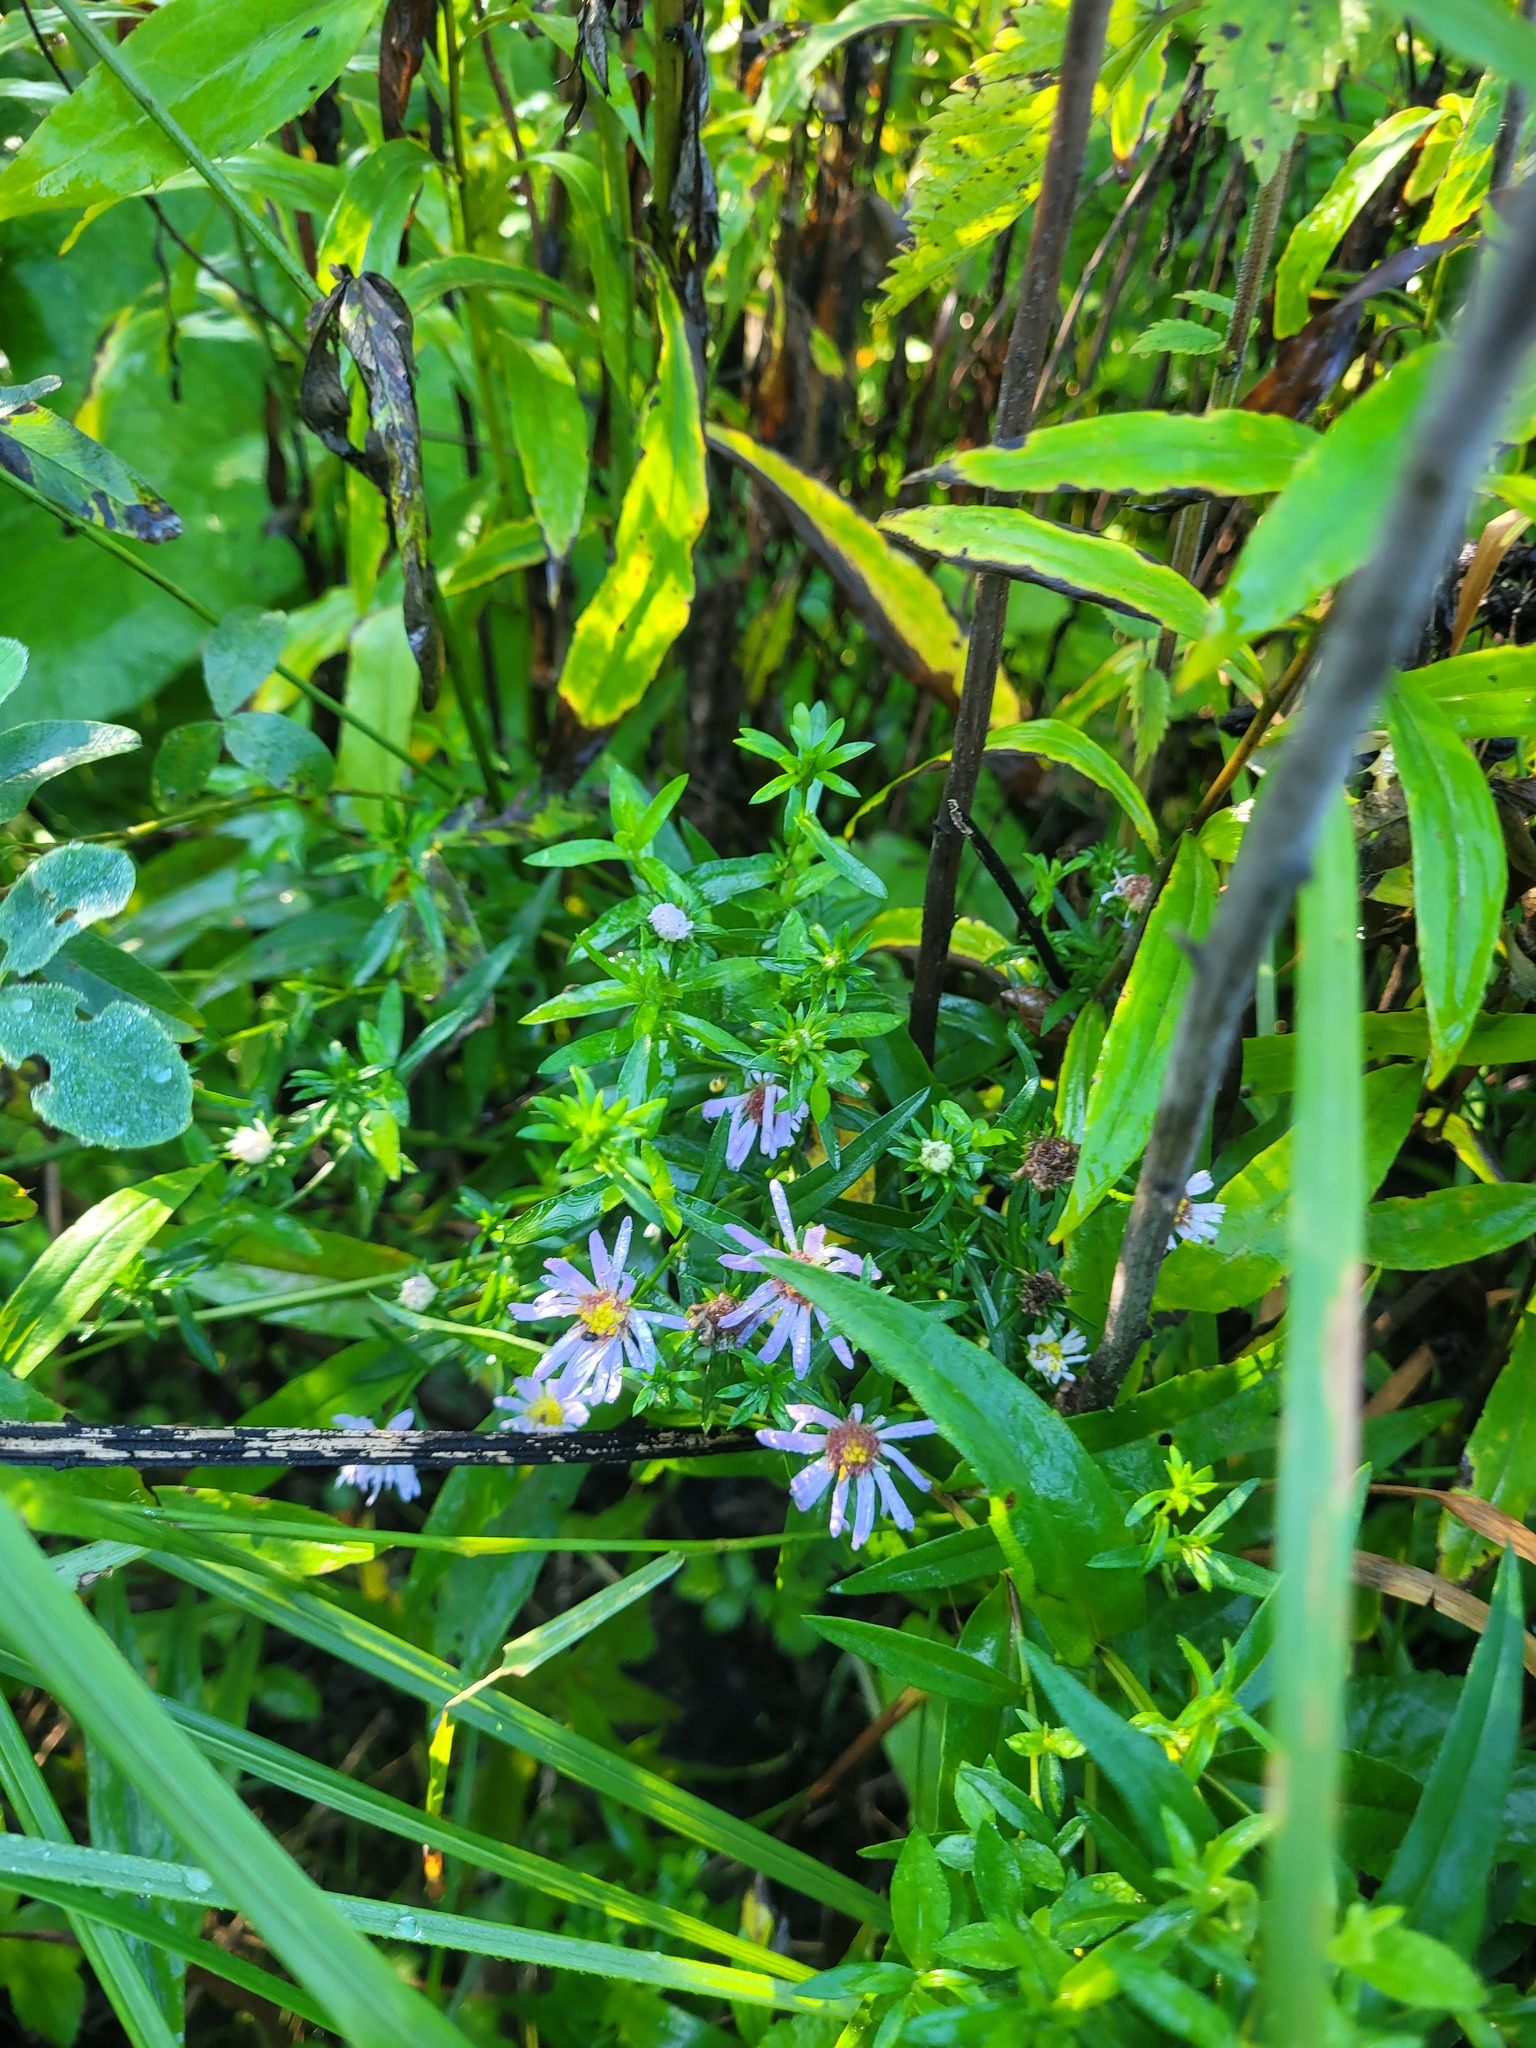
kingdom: Plantae
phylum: Tracheophyta
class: Magnoliopsida
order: Asterales
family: Asteraceae
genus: Symphyotrichum
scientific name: Symphyotrichum novi-belgii
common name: Michaelmas daisy
